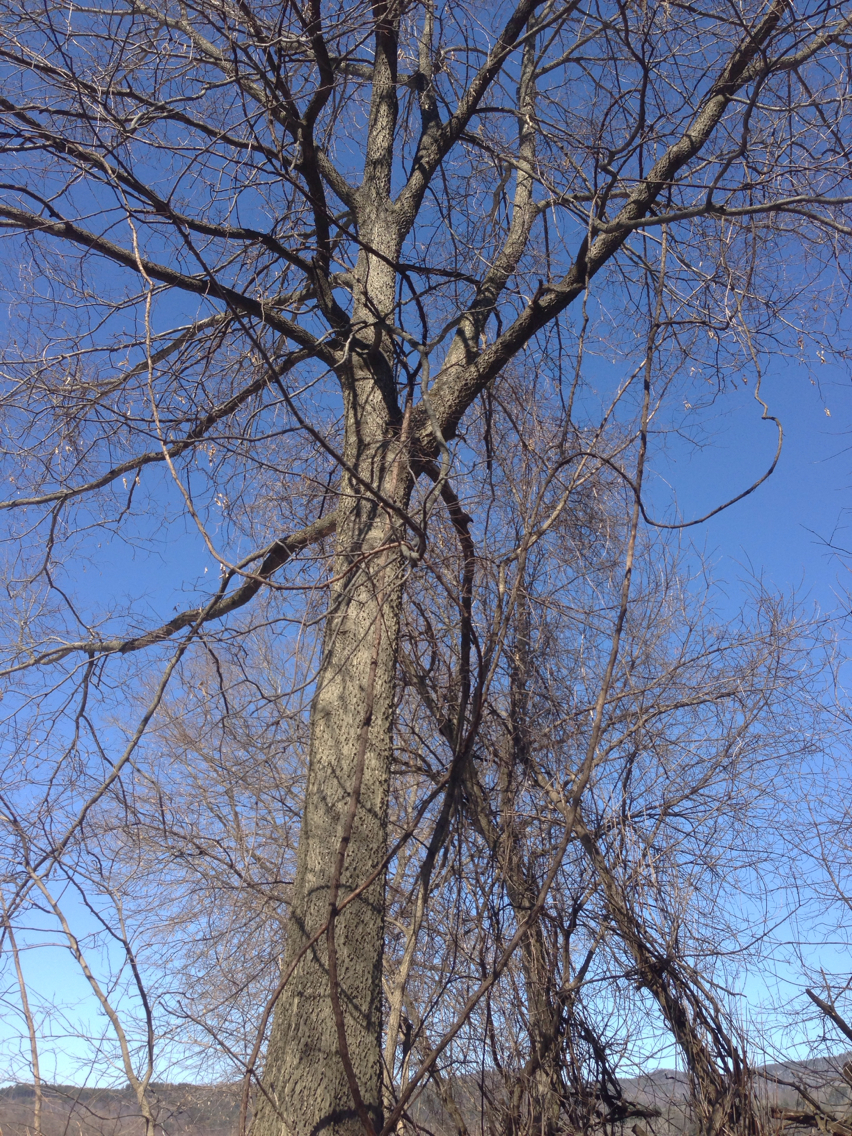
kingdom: Plantae
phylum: Tracheophyta
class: Magnoliopsida
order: Rosales
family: Cannabaceae
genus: Celtis
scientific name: Celtis occidentalis
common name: Common hackberry
